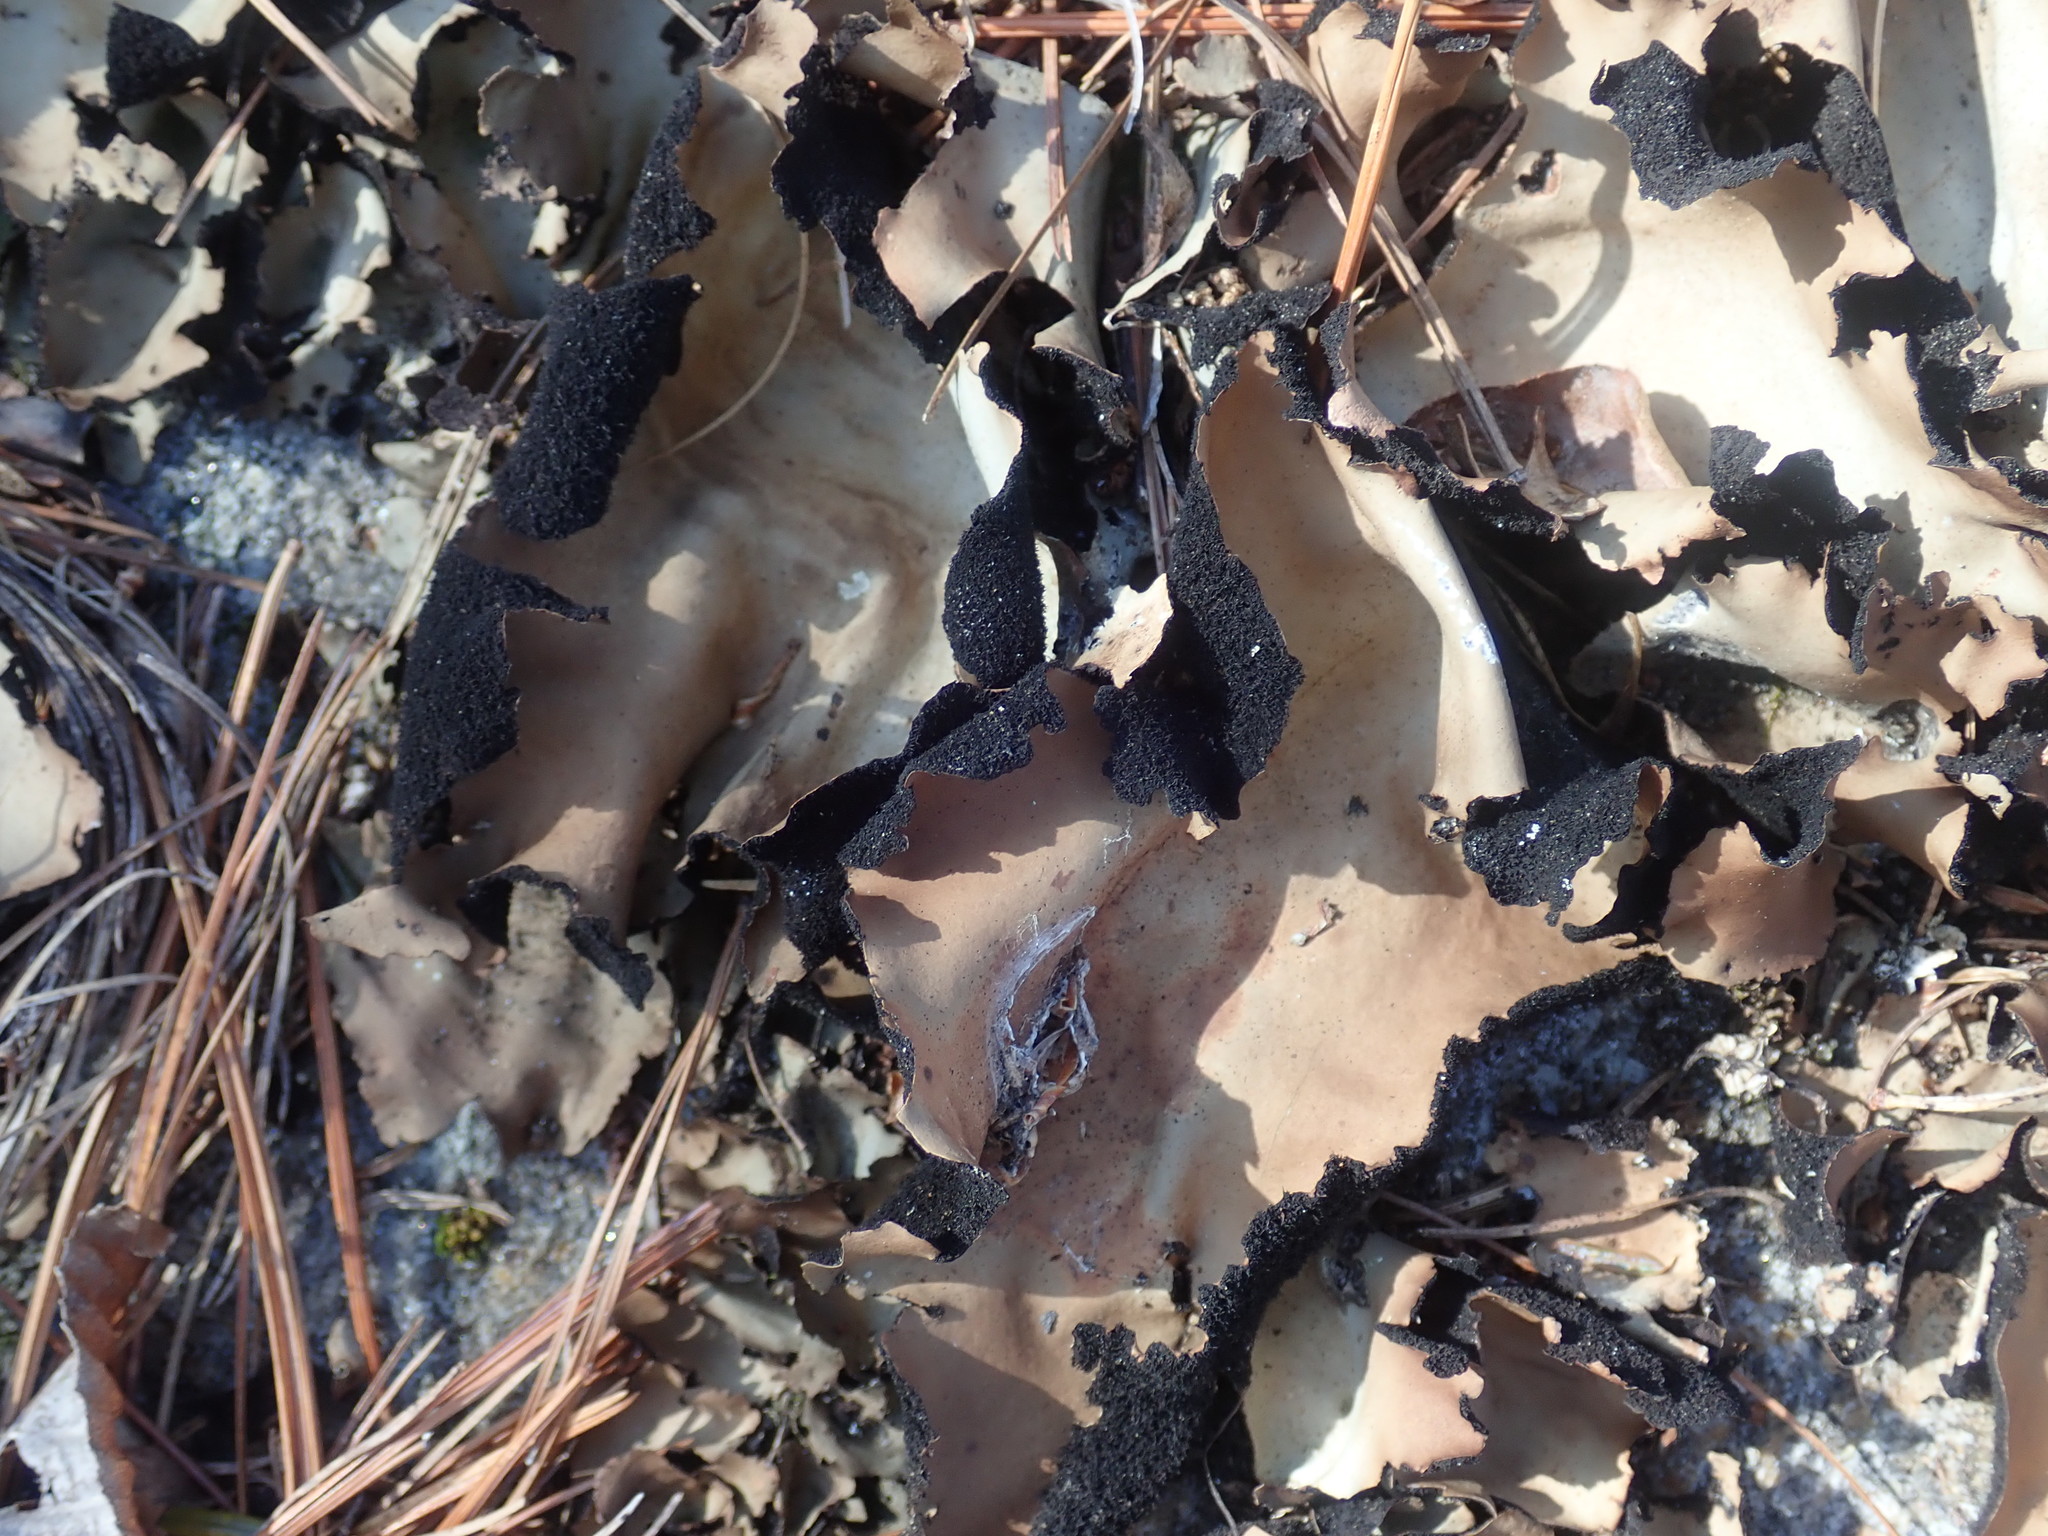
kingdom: Fungi
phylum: Ascomycota
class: Lecanoromycetes
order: Umbilicariales
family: Umbilicariaceae
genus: Umbilicaria
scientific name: Umbilicaria mammulata
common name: Smooth rock tripe
